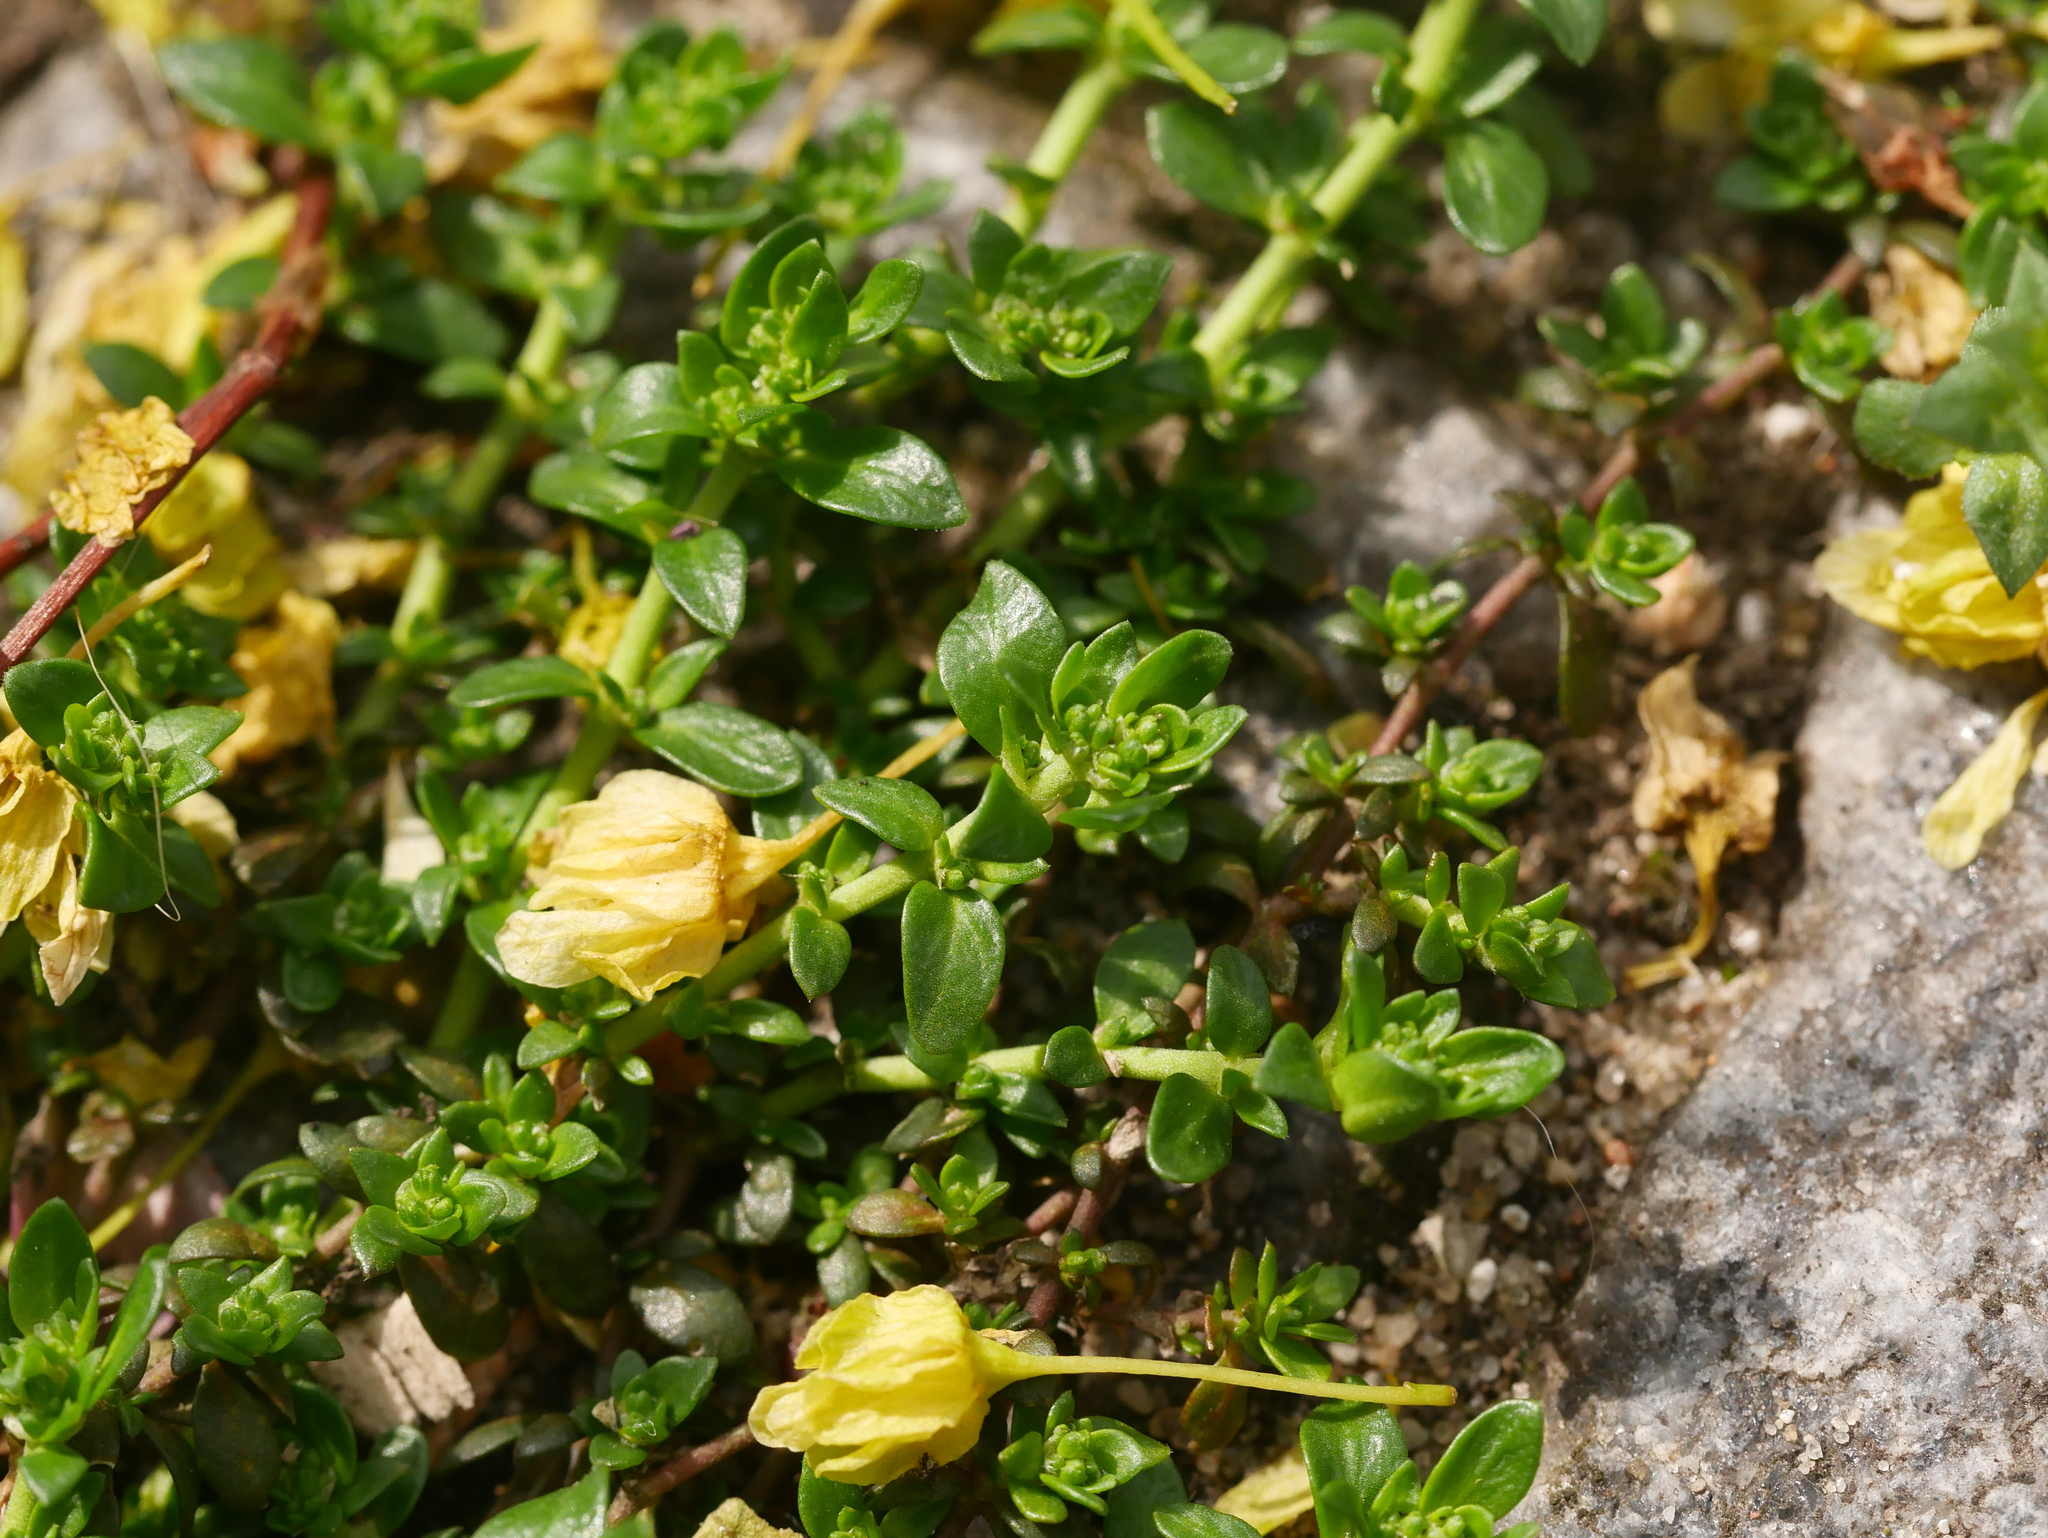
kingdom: Plantae
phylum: Tracheophyta
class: Magnoliopsida
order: Caryophyllales
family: Caryophyllaceae
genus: Herniaria
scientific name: Herniaria glabra
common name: Smooth rupturewort
